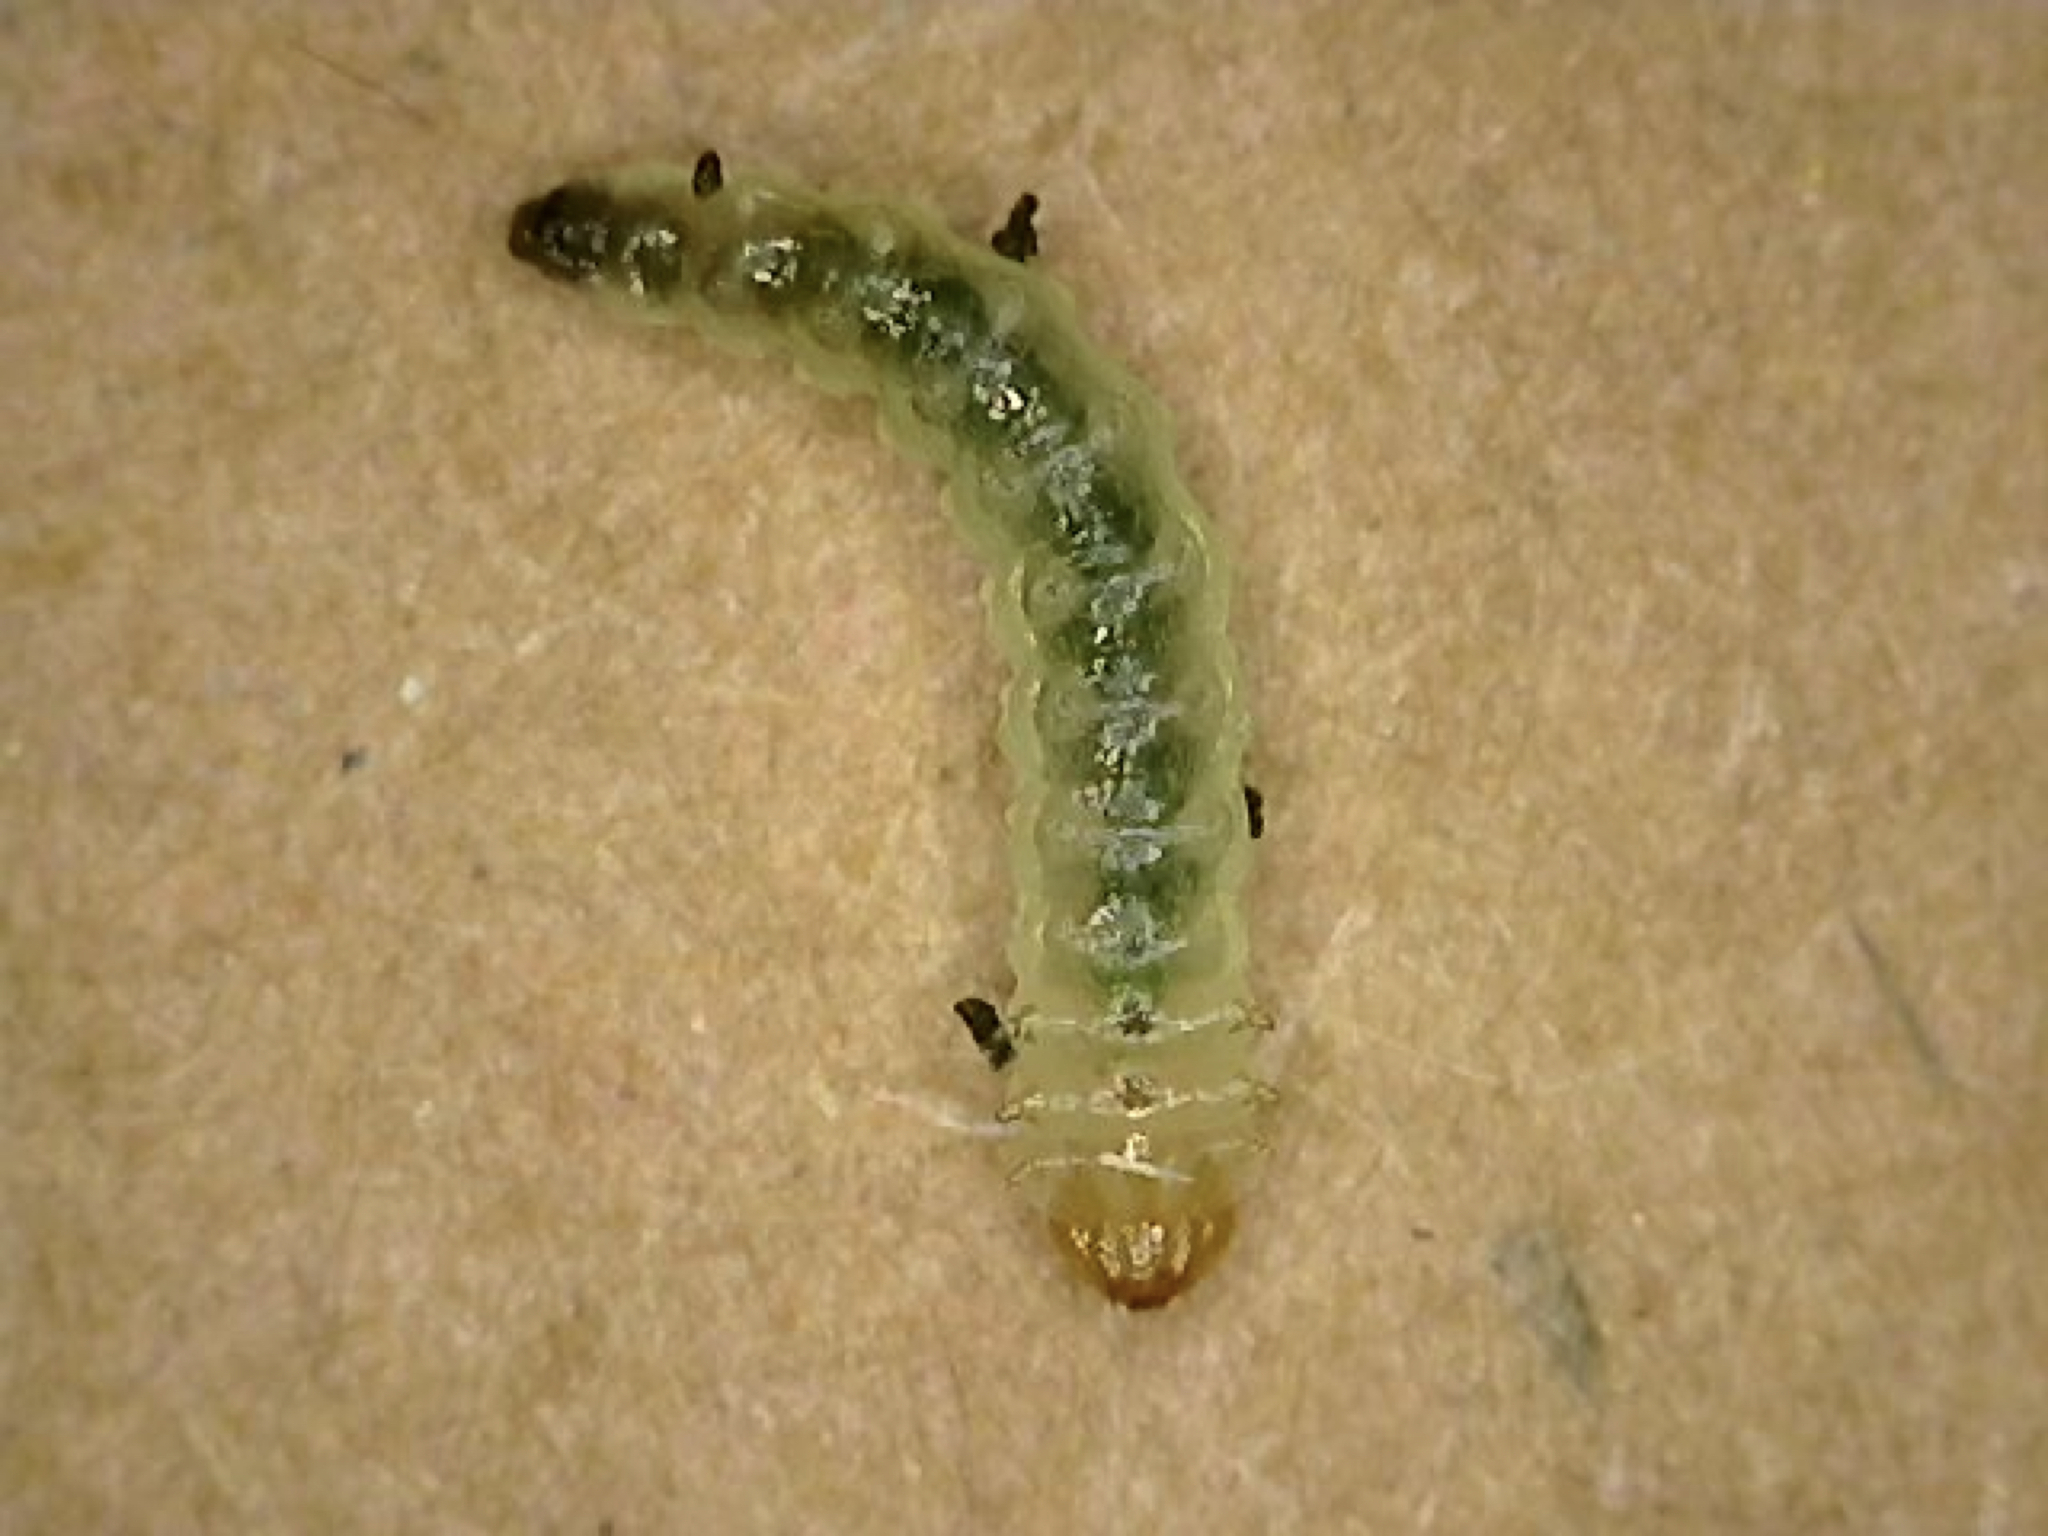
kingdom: Animalia
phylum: Arthropoda
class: Insecta
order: Hymenoptera
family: Tenthredinidae
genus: Nefusa
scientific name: Nefusa ambigua
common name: Violet leafmining sawfly
